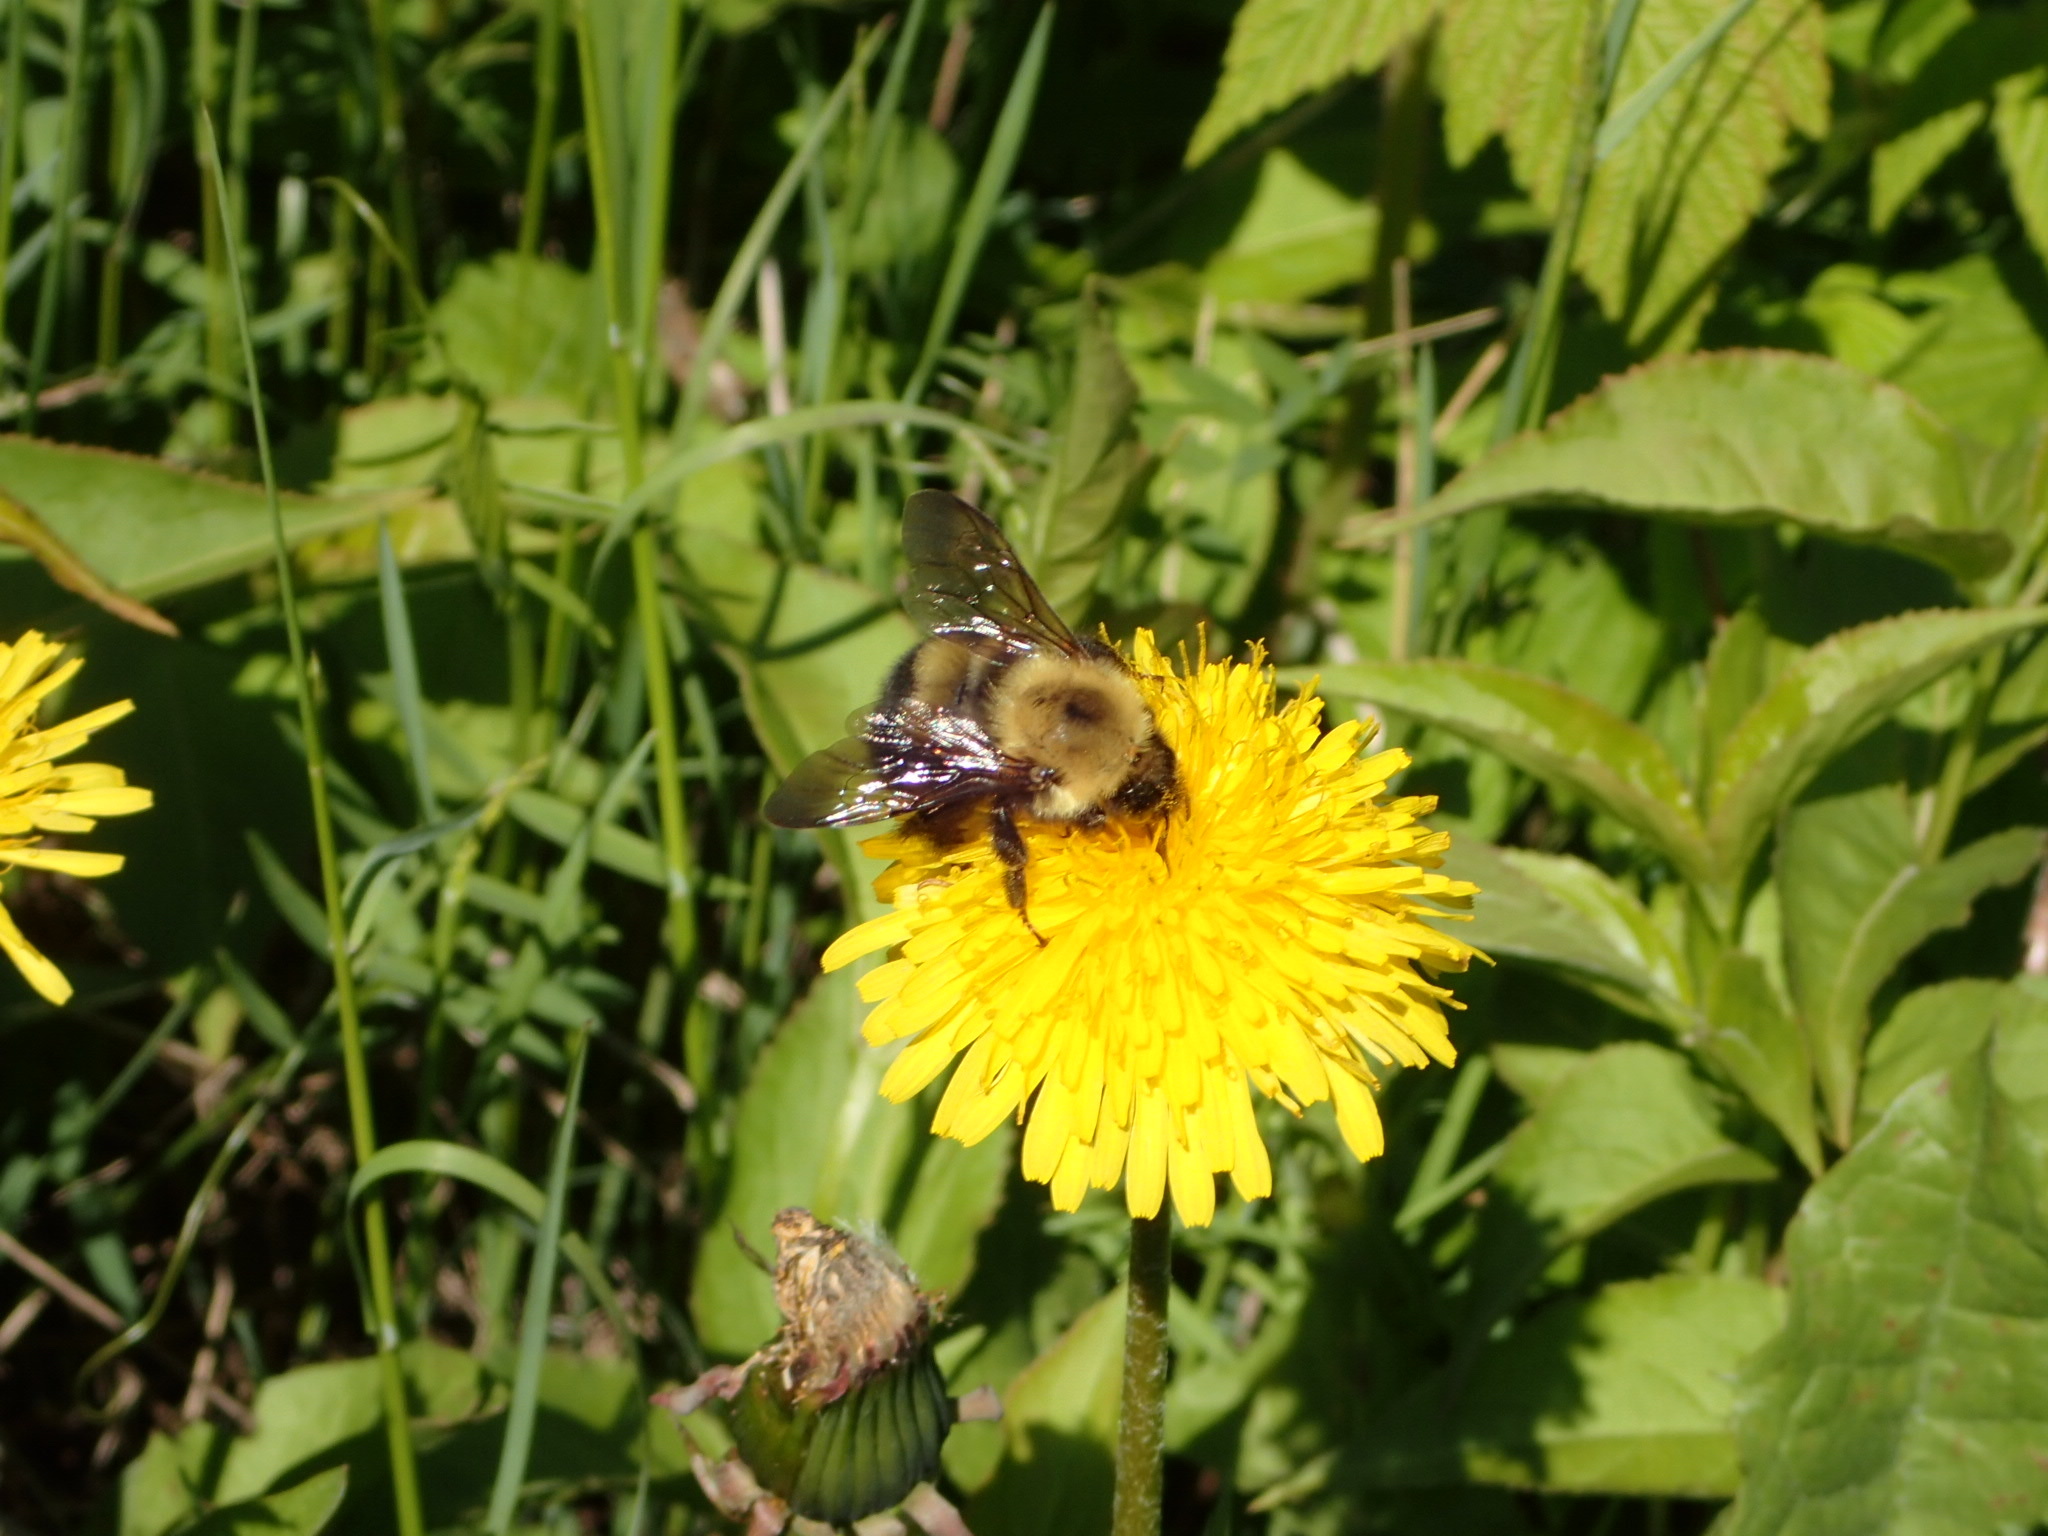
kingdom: Animalia
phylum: Arthropoda
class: Insecta
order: Hymenoptera
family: Apidae
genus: Bombus
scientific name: Bombus perplexus
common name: Confusing bumble bee
